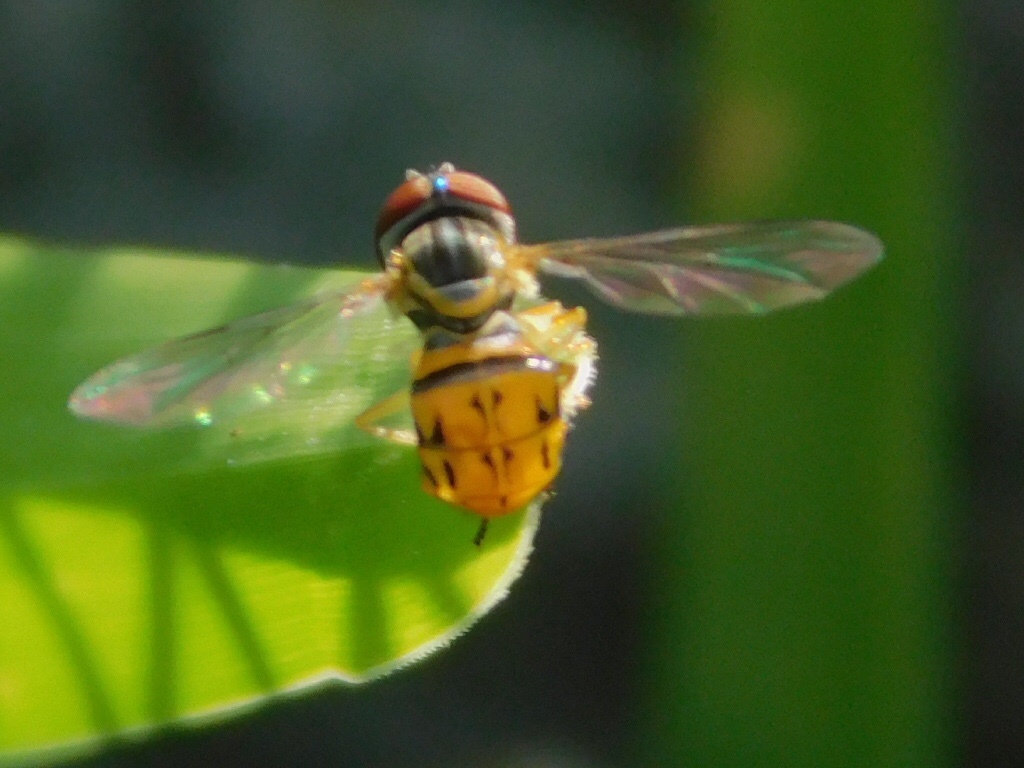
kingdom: Animalia
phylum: Arthropoda
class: Insecta
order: Diptera
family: Syrphidae
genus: Toxomerus
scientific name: Toxomerus boscii
